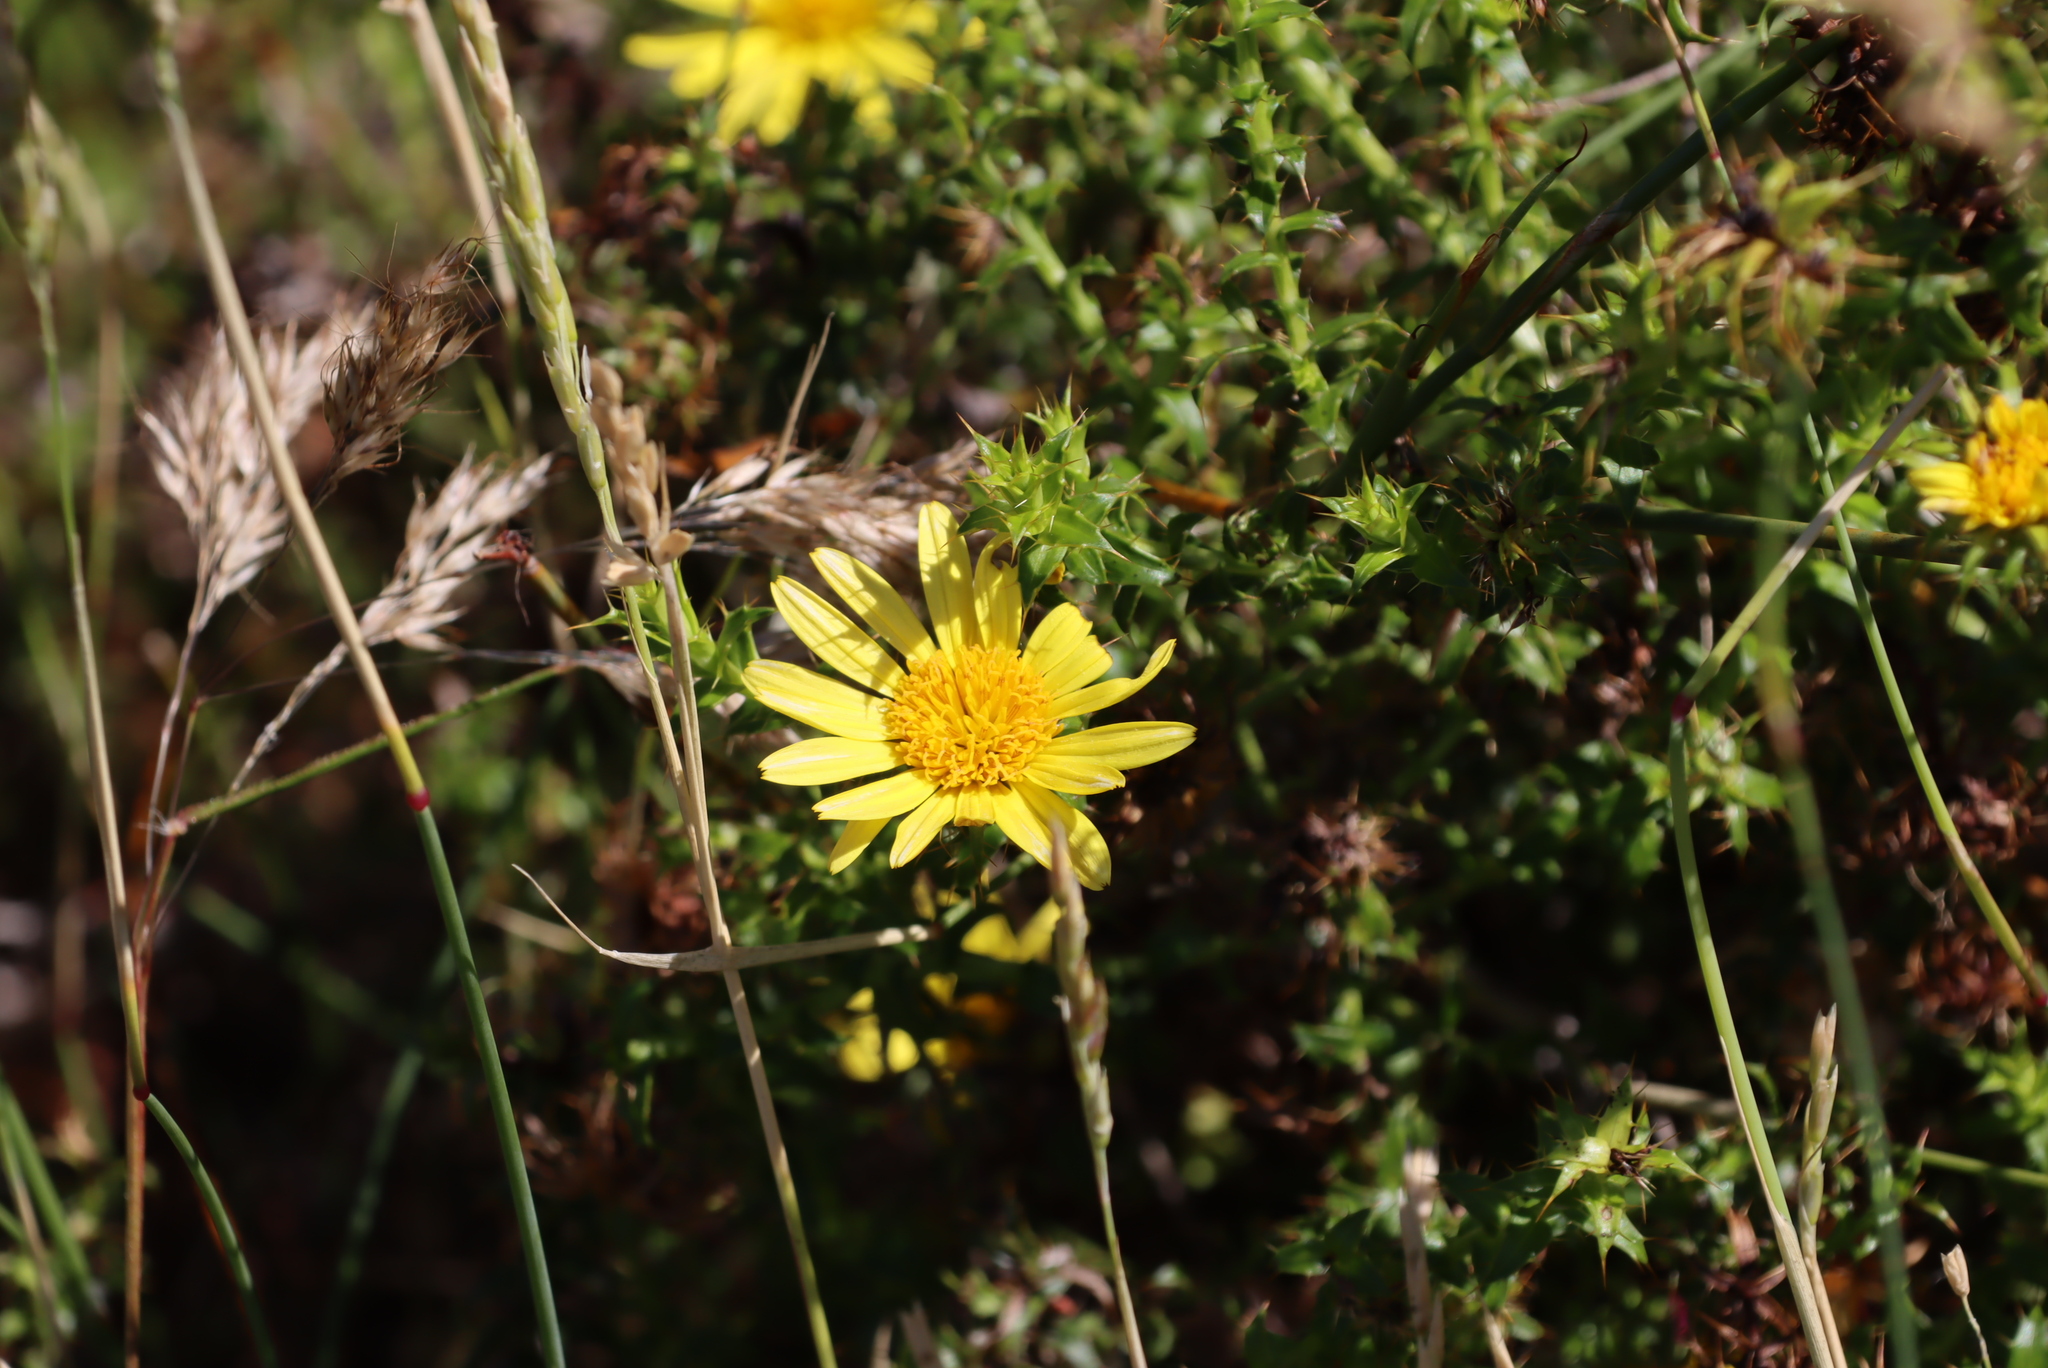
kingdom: Plantae
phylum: Tracheophyta
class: Magnoliopsida
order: Asterales
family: Asteraceae
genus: Cullumia
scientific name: Cullumia setosa
